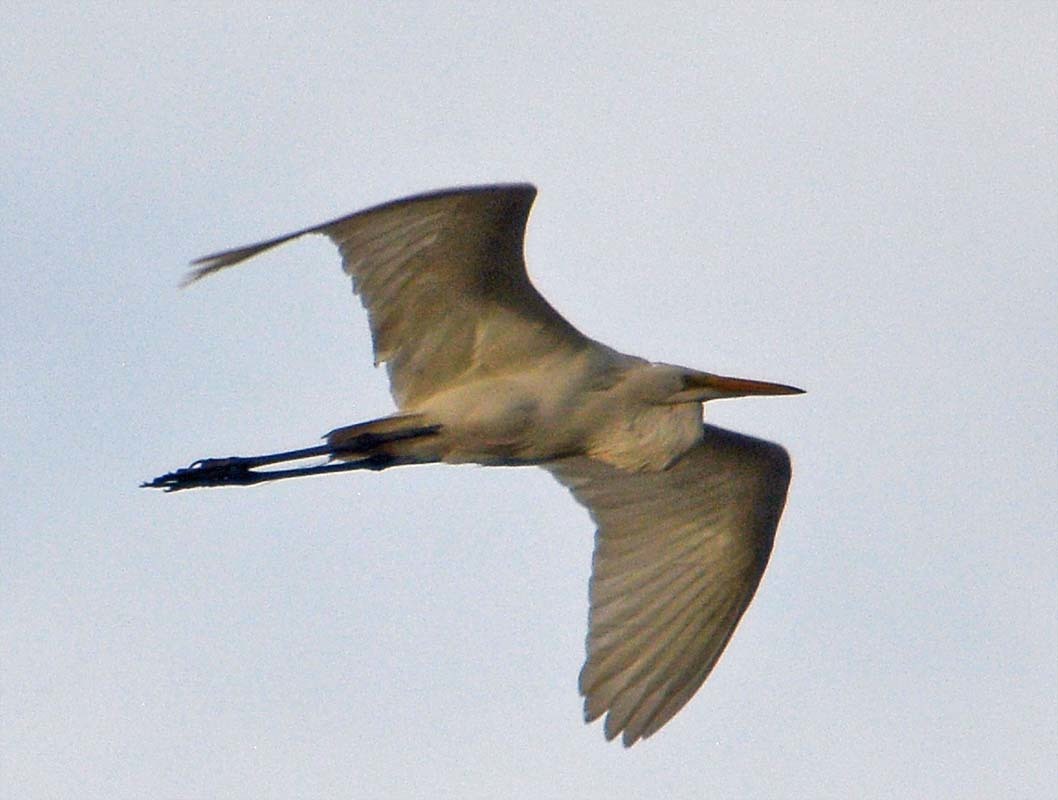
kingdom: Animalia
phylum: Chordata
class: Aves
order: Pelecaniformes
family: Ardeidae
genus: Ardea
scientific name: Ardea alba
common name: Great egret
